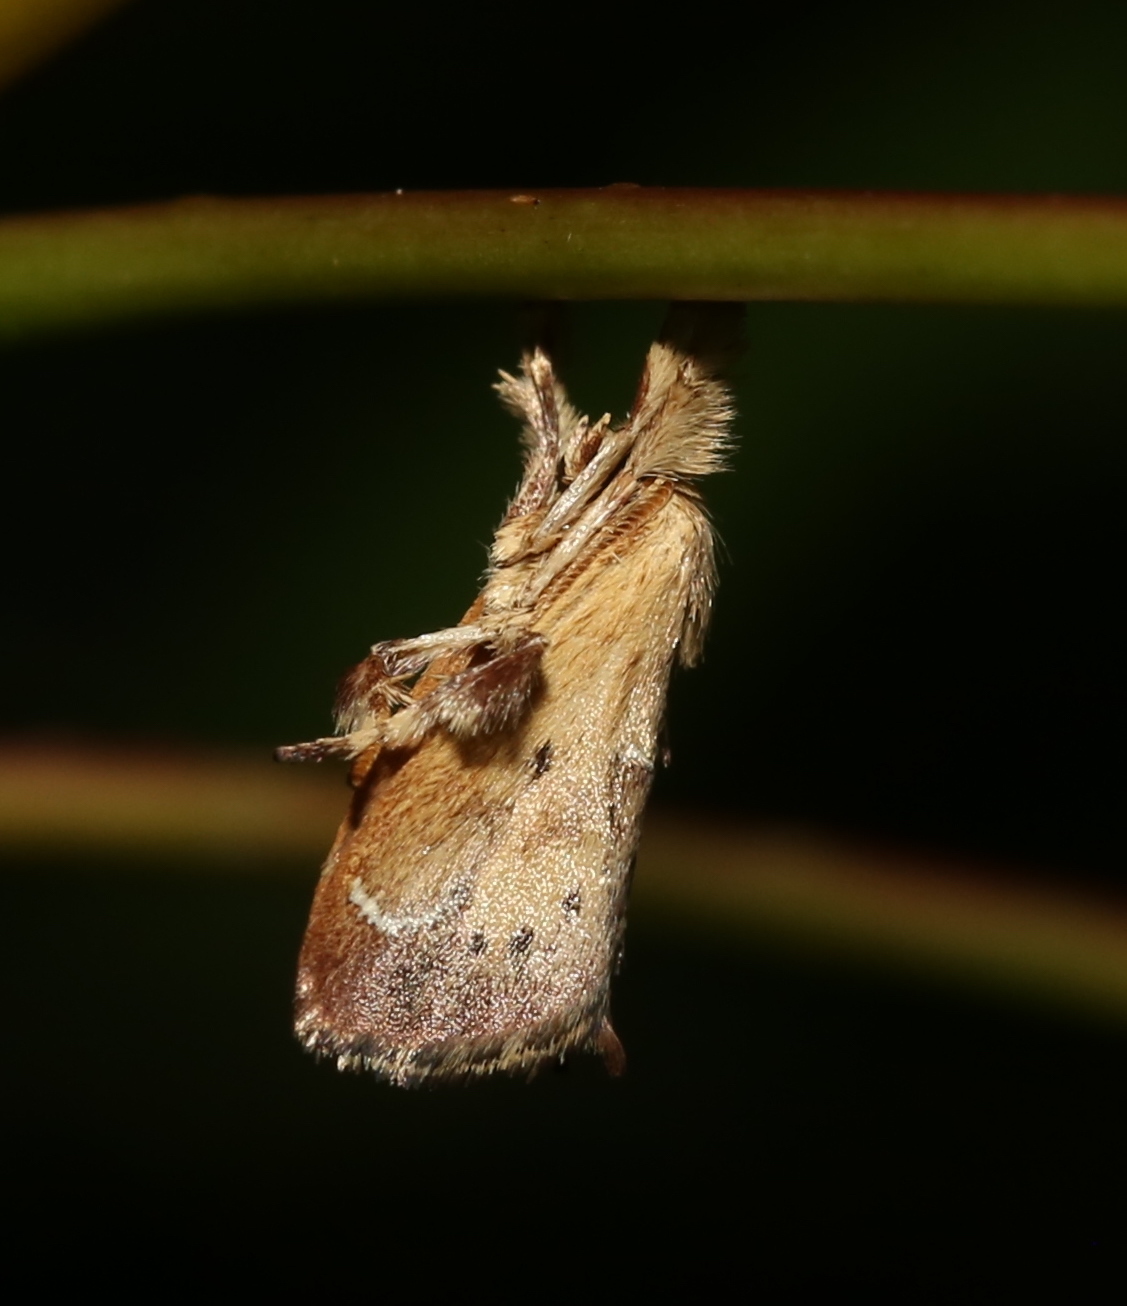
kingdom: Animalia
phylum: Arthropoda
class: Insecta
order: Lepidoptera
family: Limacodidae
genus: Adoneta
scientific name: Adoneta bicaudata
